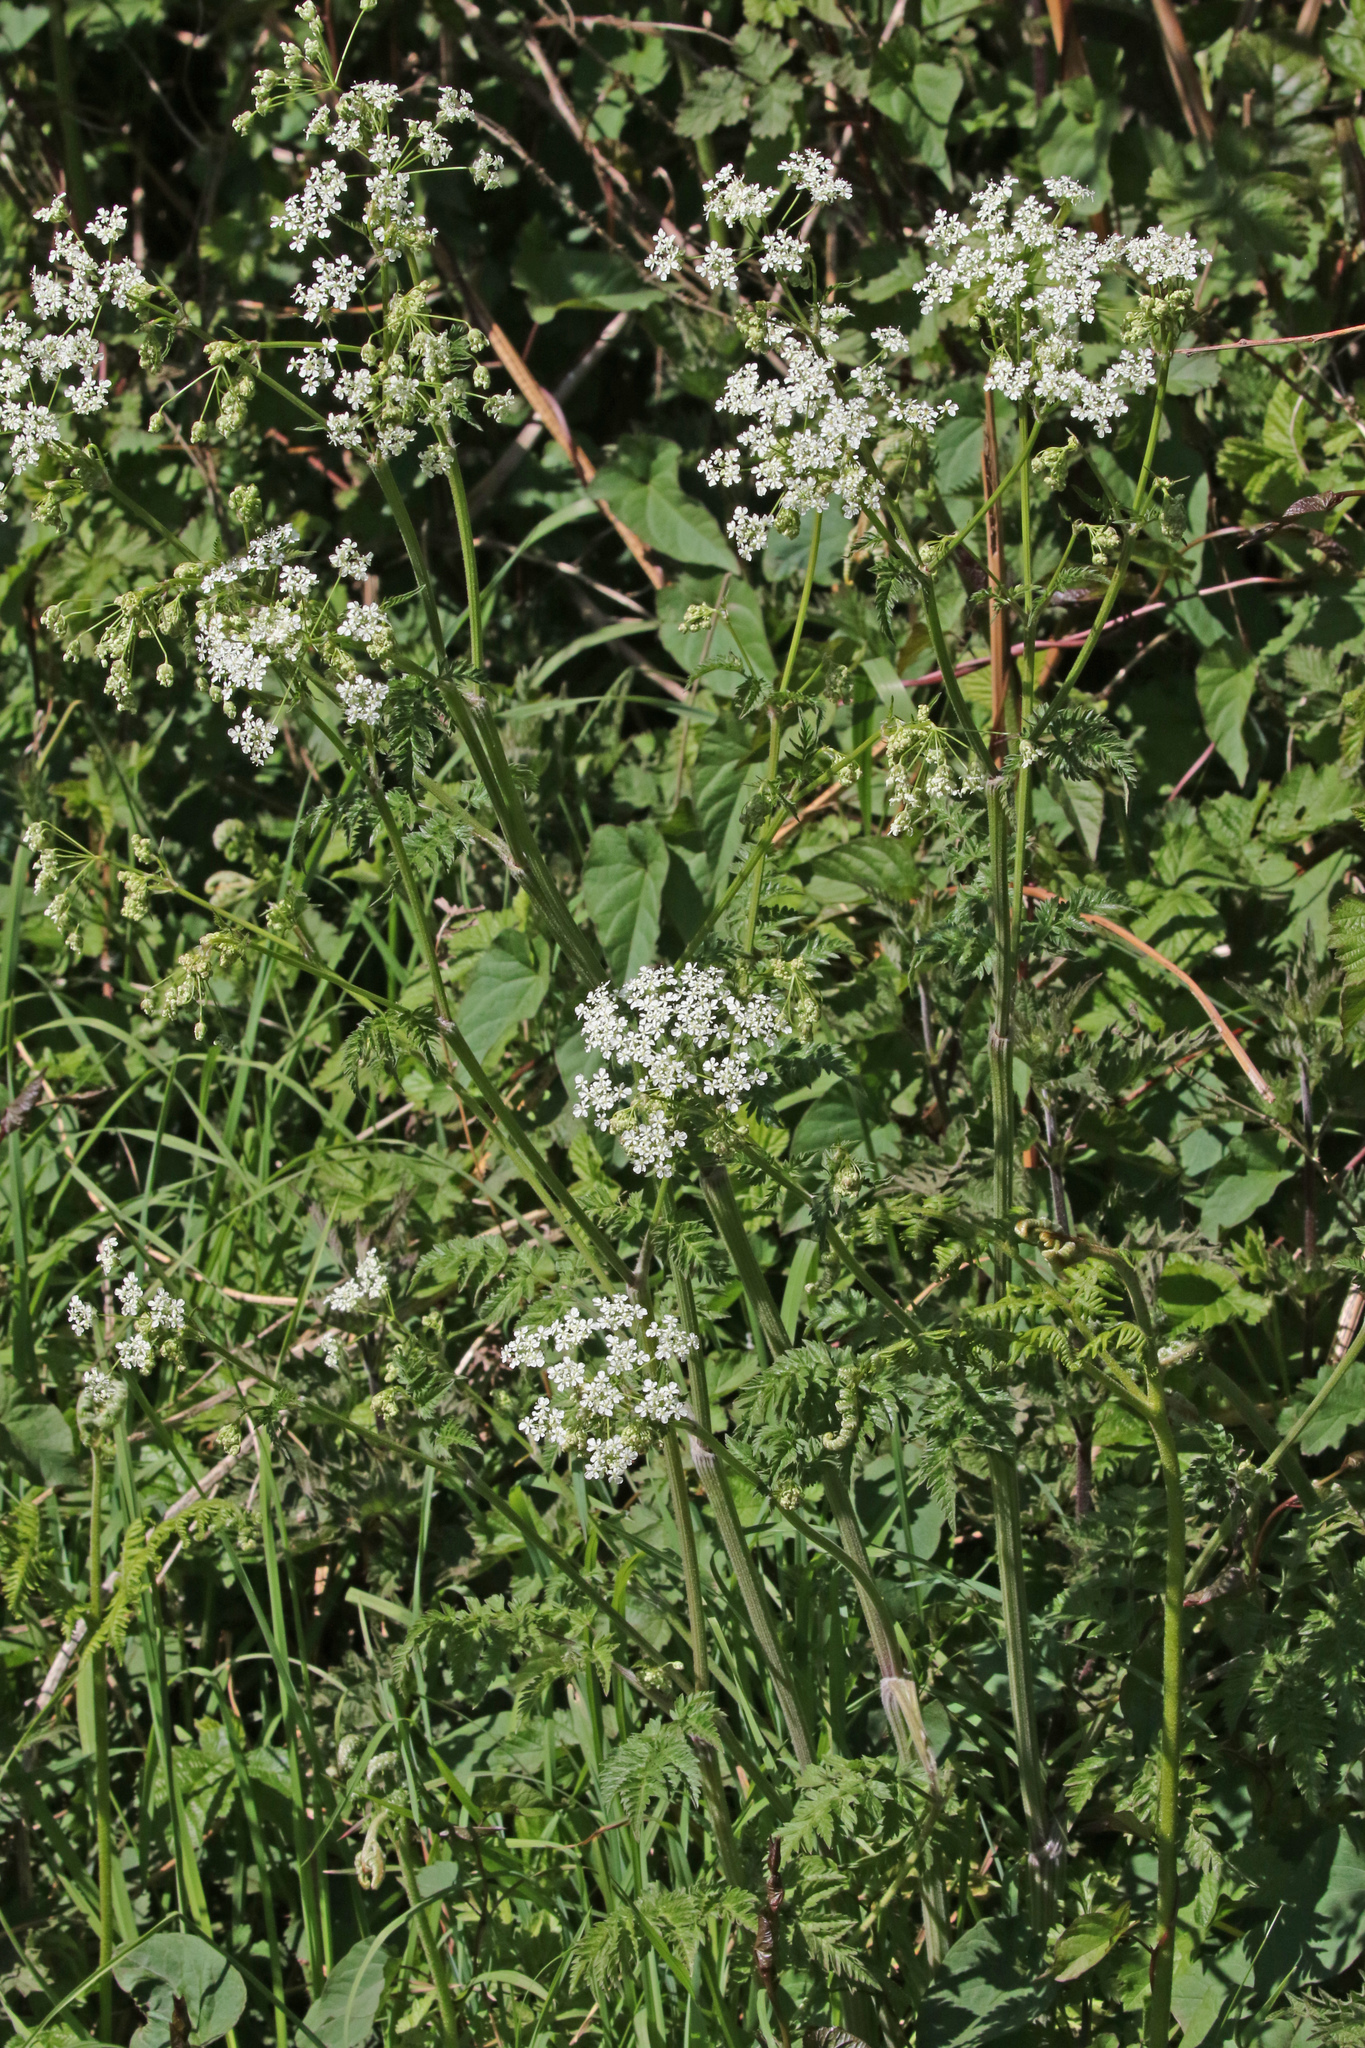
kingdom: Plantae
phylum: Tracheophyta
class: Magnoliopsida
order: Apiales
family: Apiaceae
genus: Anthriscus
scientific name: Anthriscus sylvestris
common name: Cow parsley
